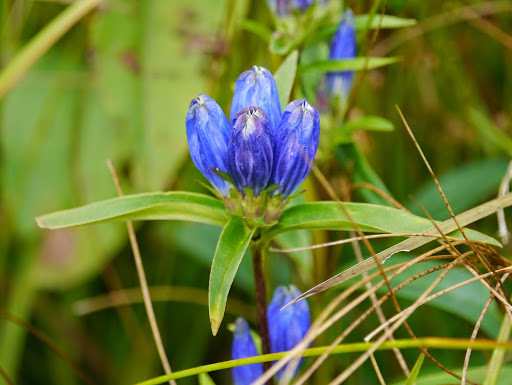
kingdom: Plantae
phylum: Tracheophyta
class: Magnoliopsida
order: Gentianales
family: Gentianaceae
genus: Gentiana
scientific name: Gentiana linearis
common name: Bastard gentian
